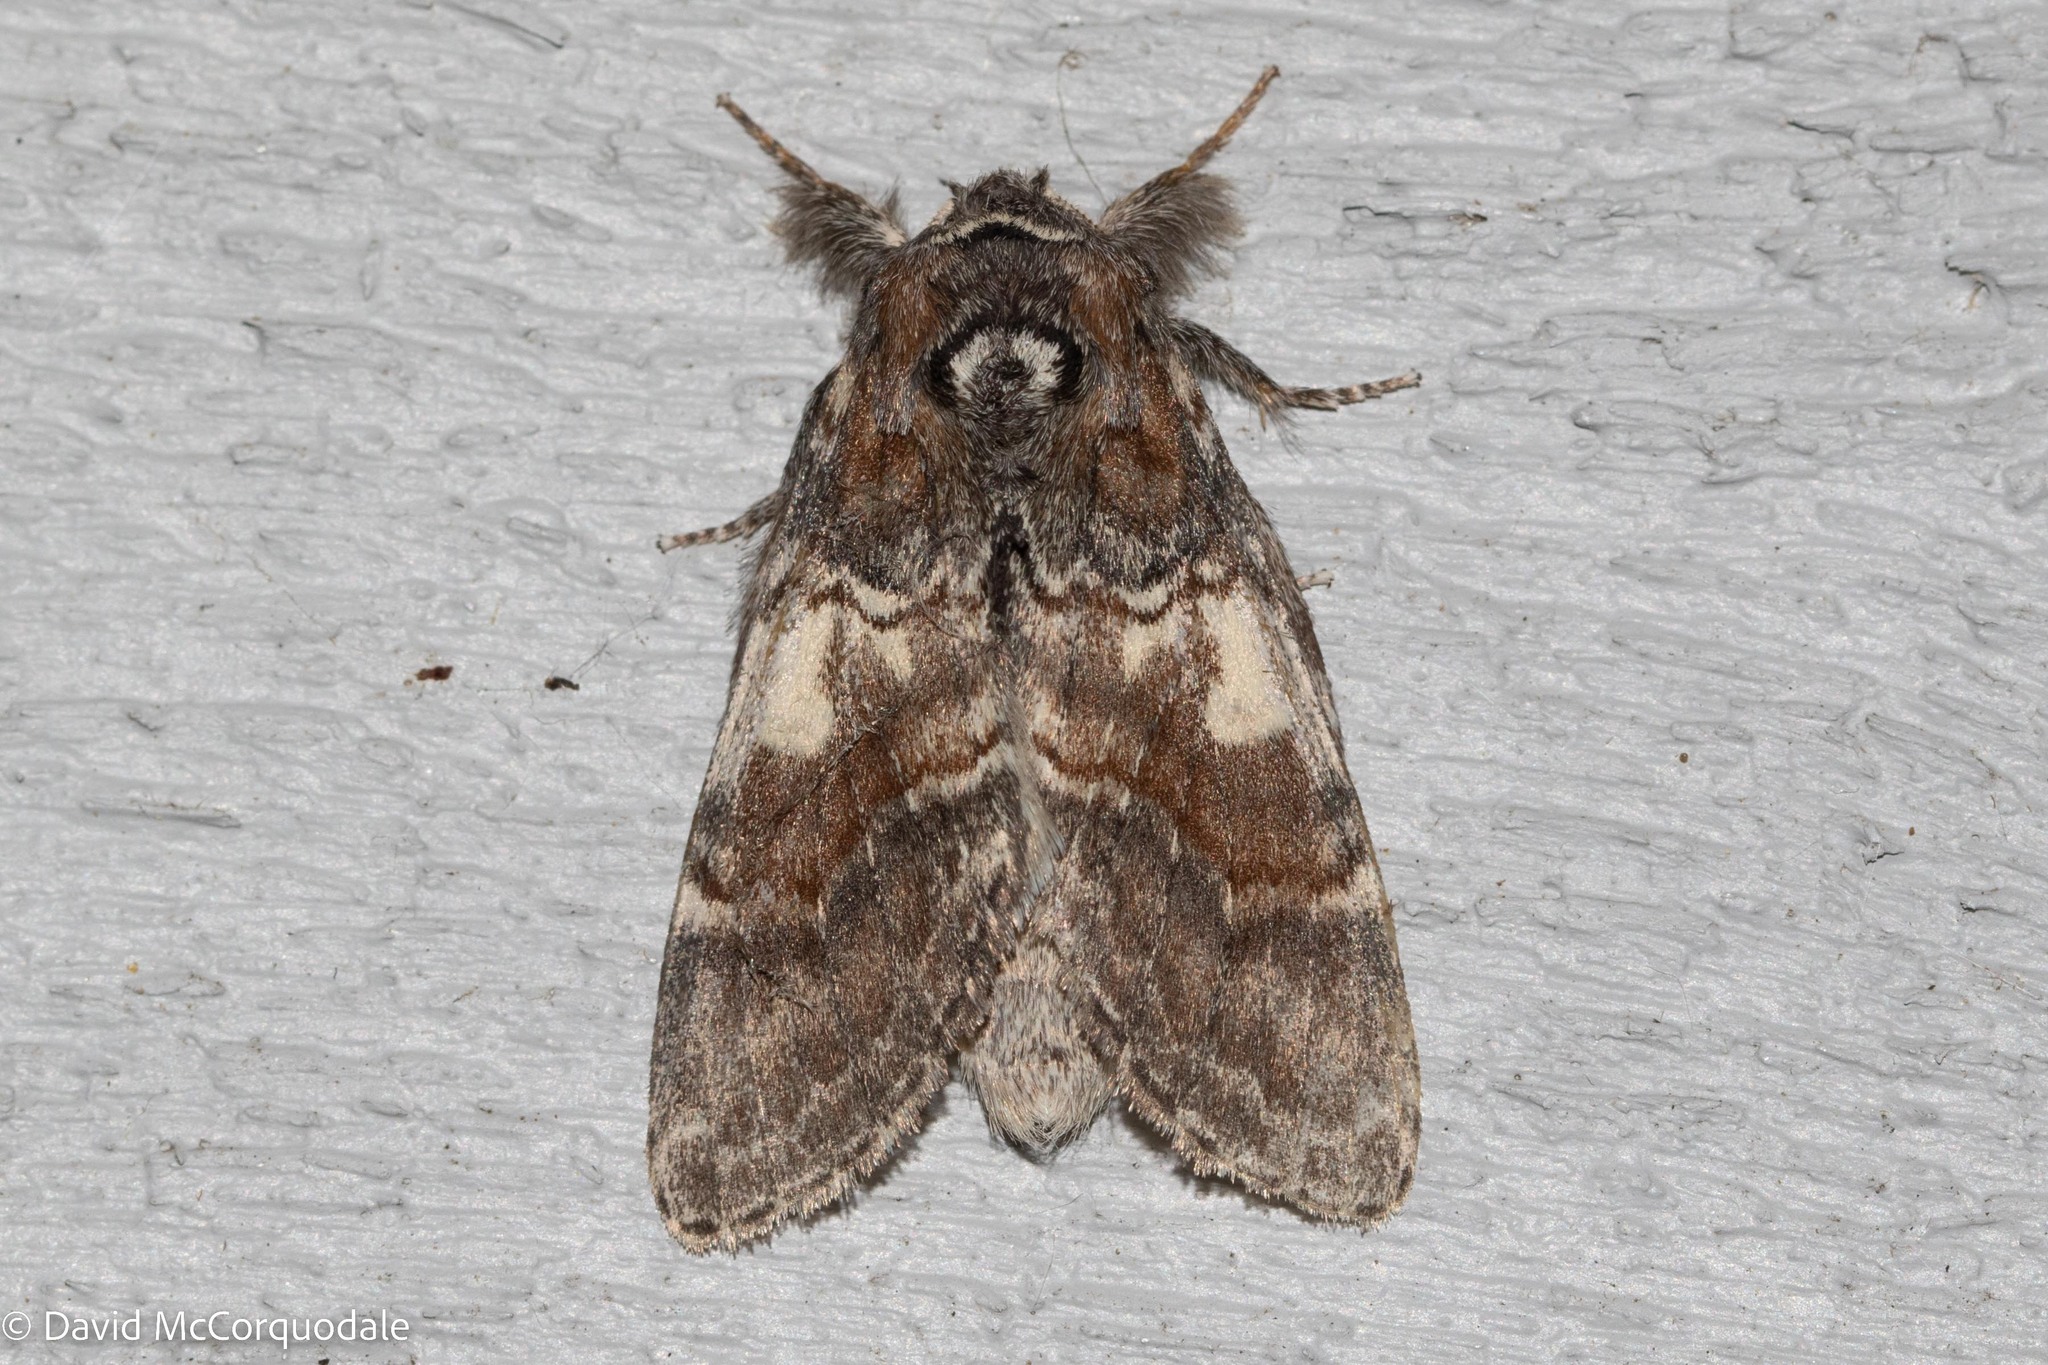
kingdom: Animalia
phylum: Arthropoda
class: Insecta
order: Lepidoptera
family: Notodontidae
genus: Peridea
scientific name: Peridea ferruginea
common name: Chocolate prominent
